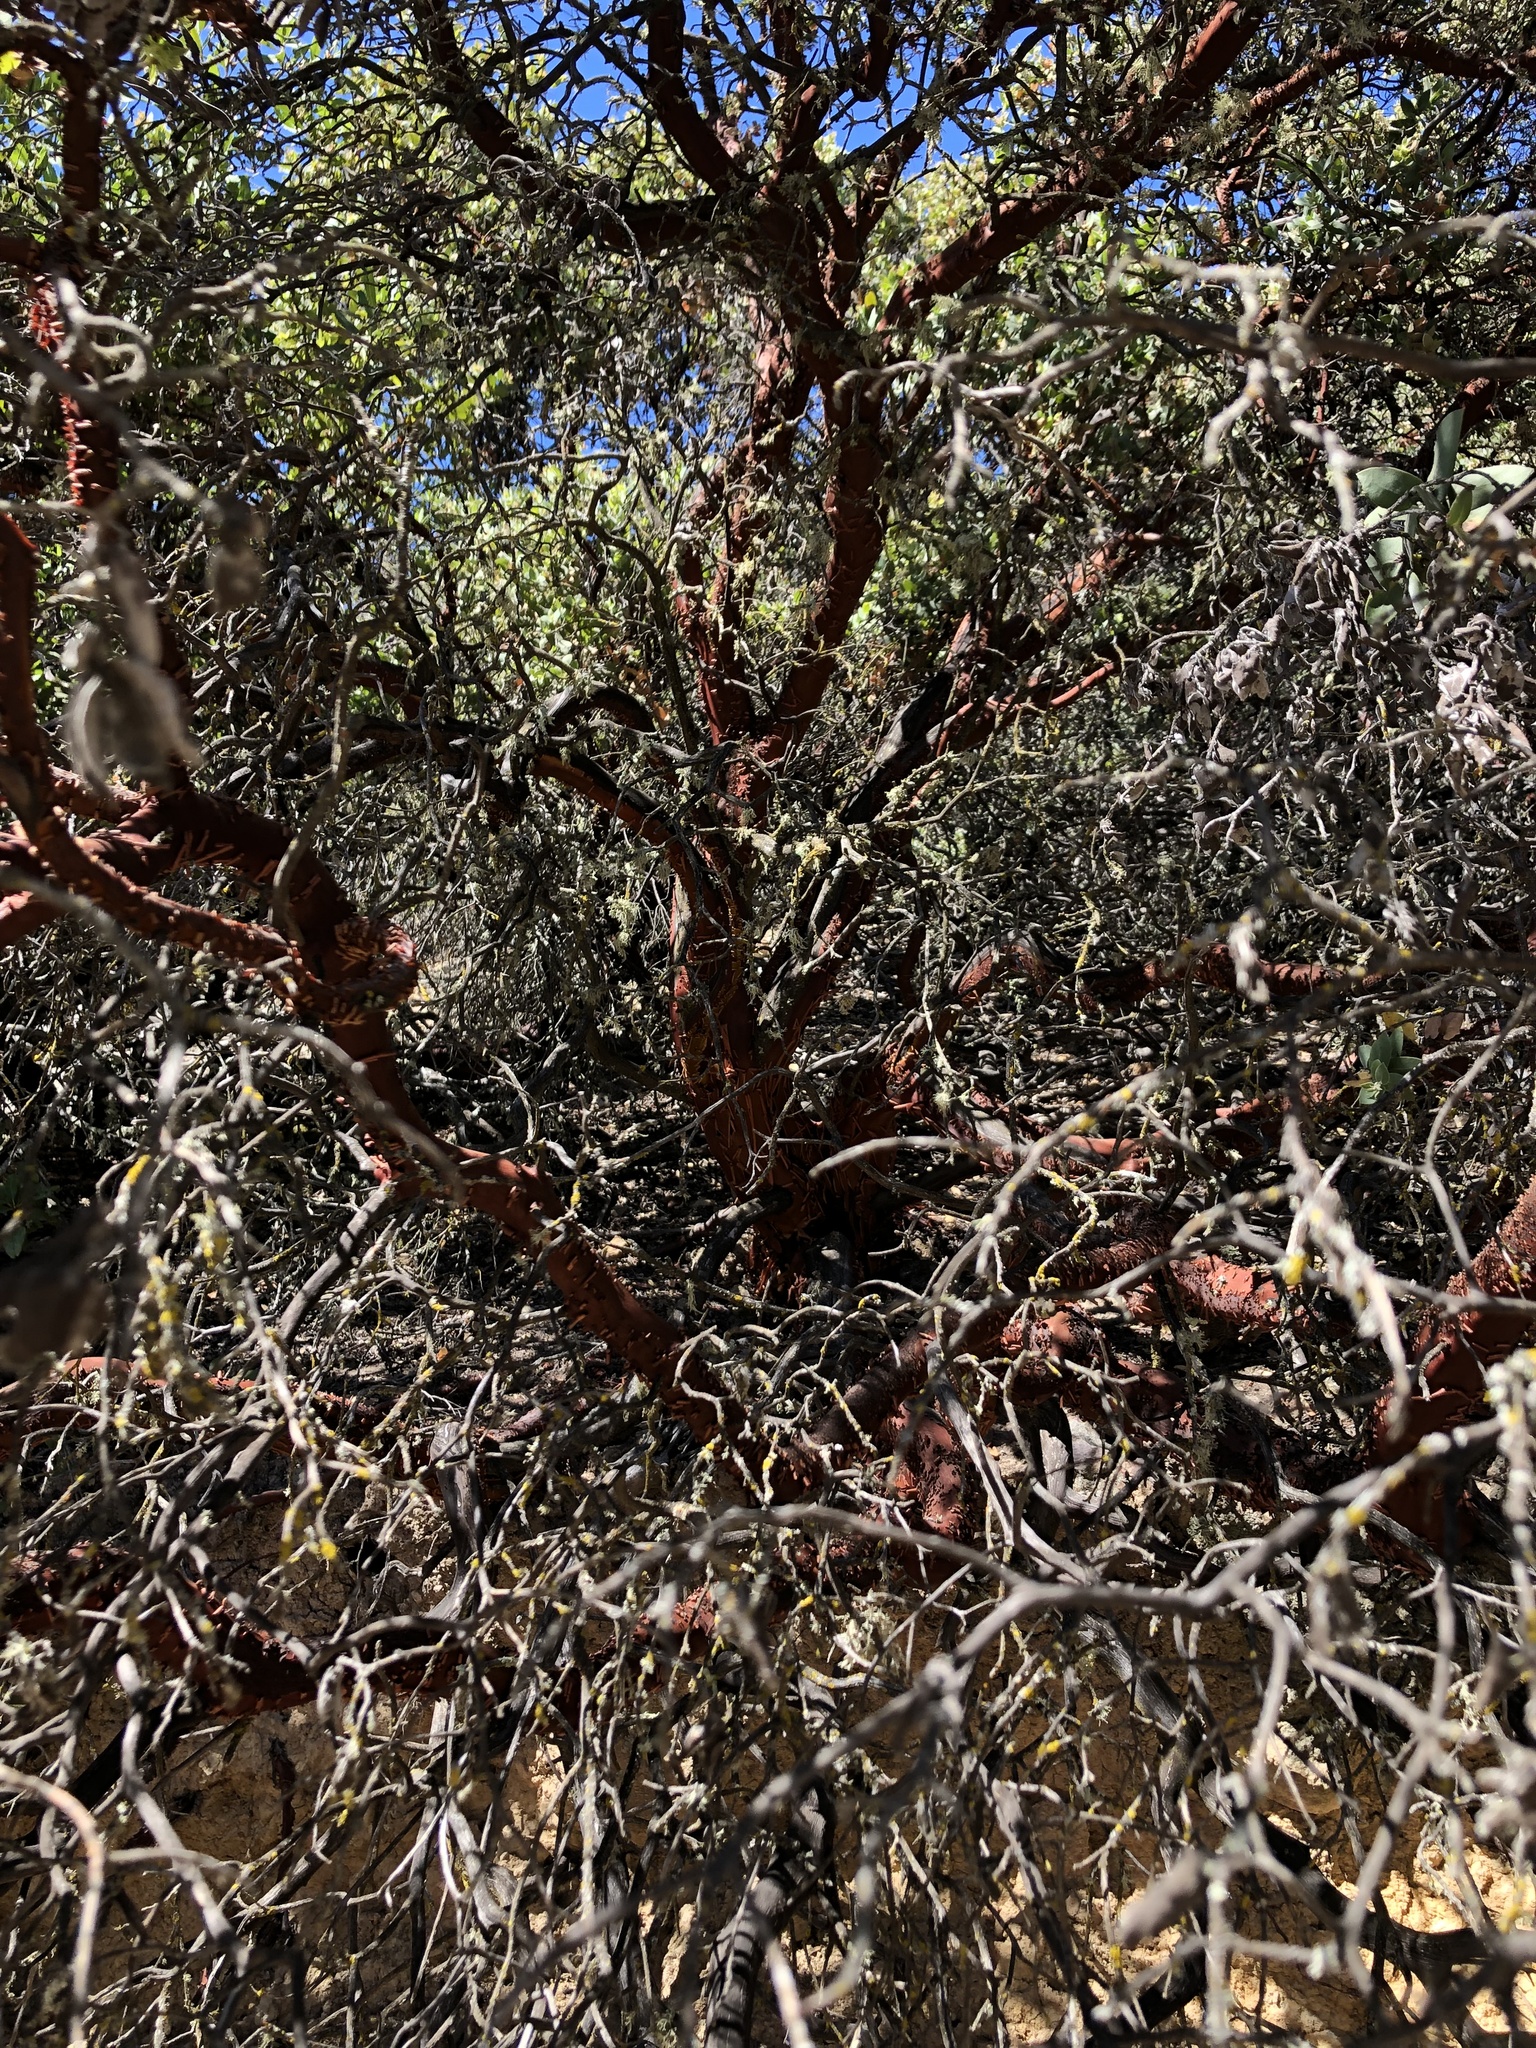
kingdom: Plantae
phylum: Tracheophyta
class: Magnoliopsida
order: Ericales
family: Ericaceae
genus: Arctostaphylos
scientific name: Arctostaphylos luciana
